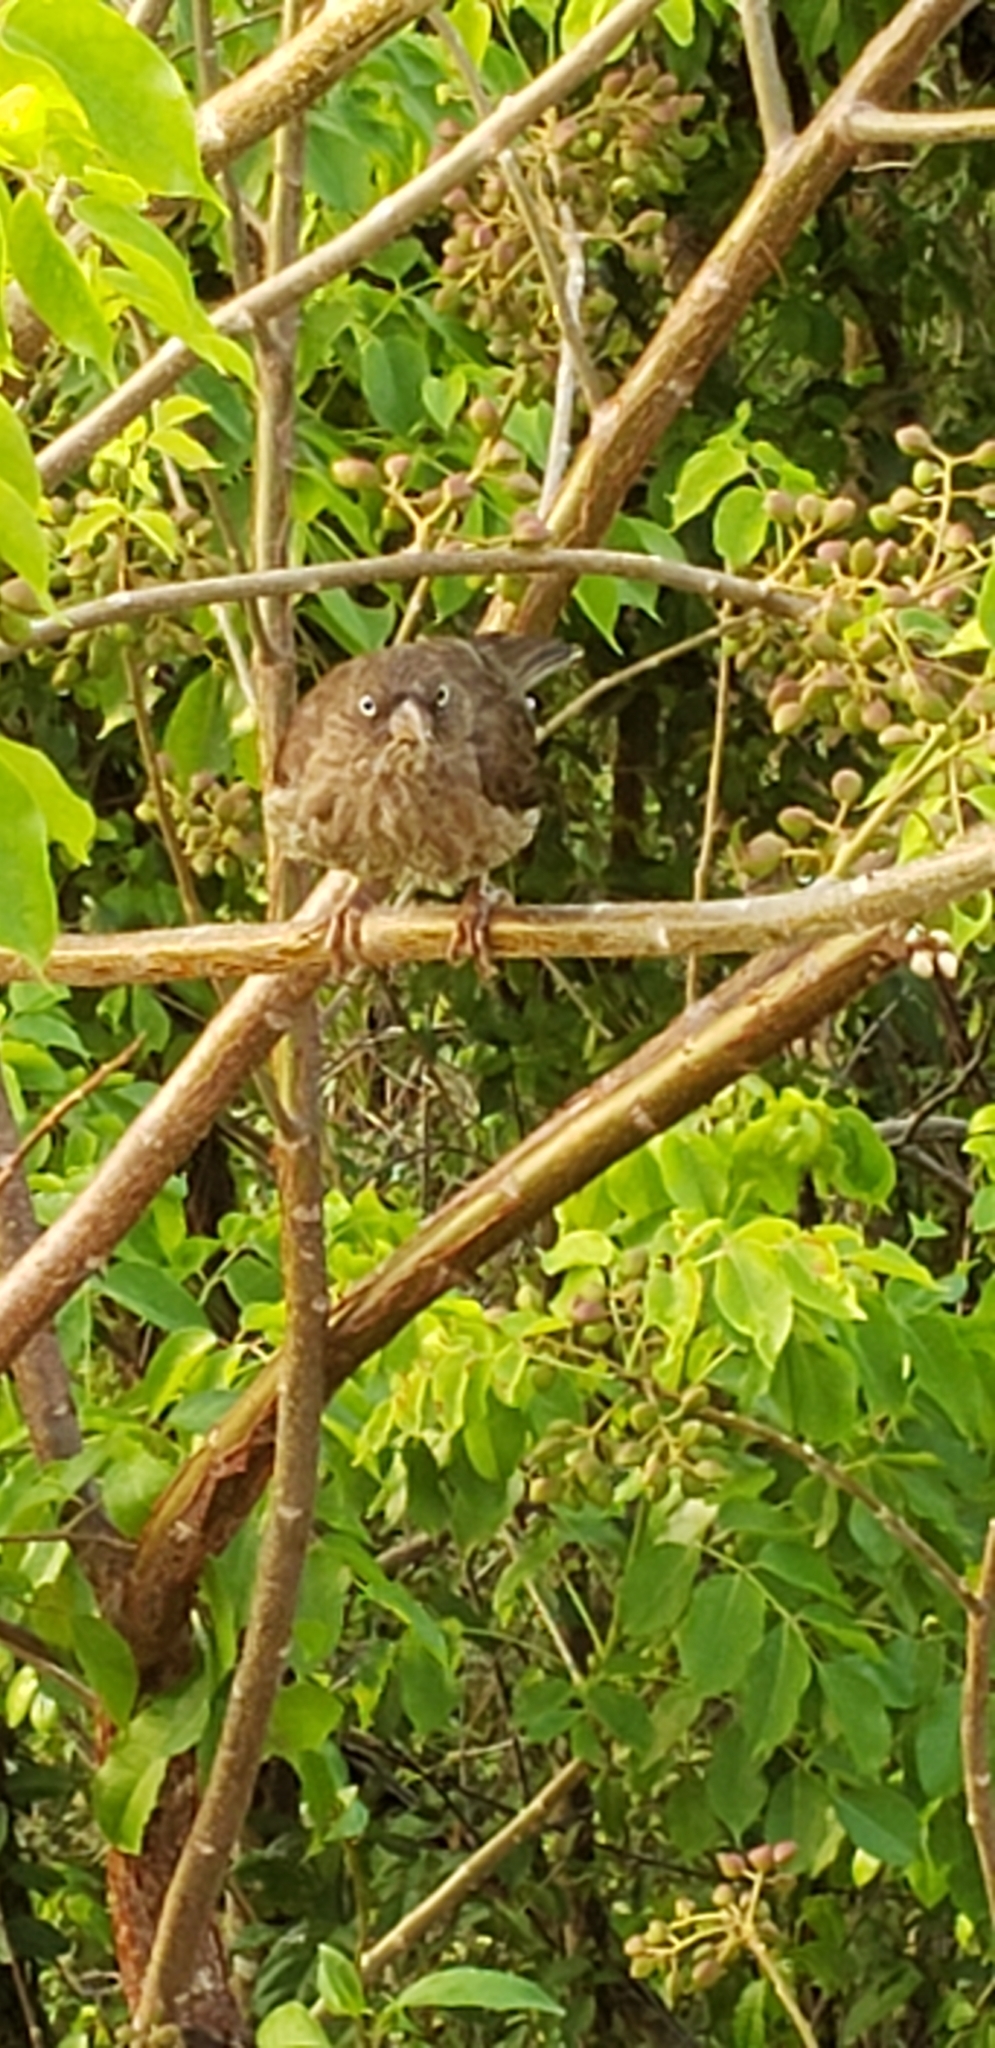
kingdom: Animalia
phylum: Chordata
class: Aves
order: Passeriformes
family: Mimidae
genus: Margarops
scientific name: Margarops fuscatus
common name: Pearly-eyed thrasher
